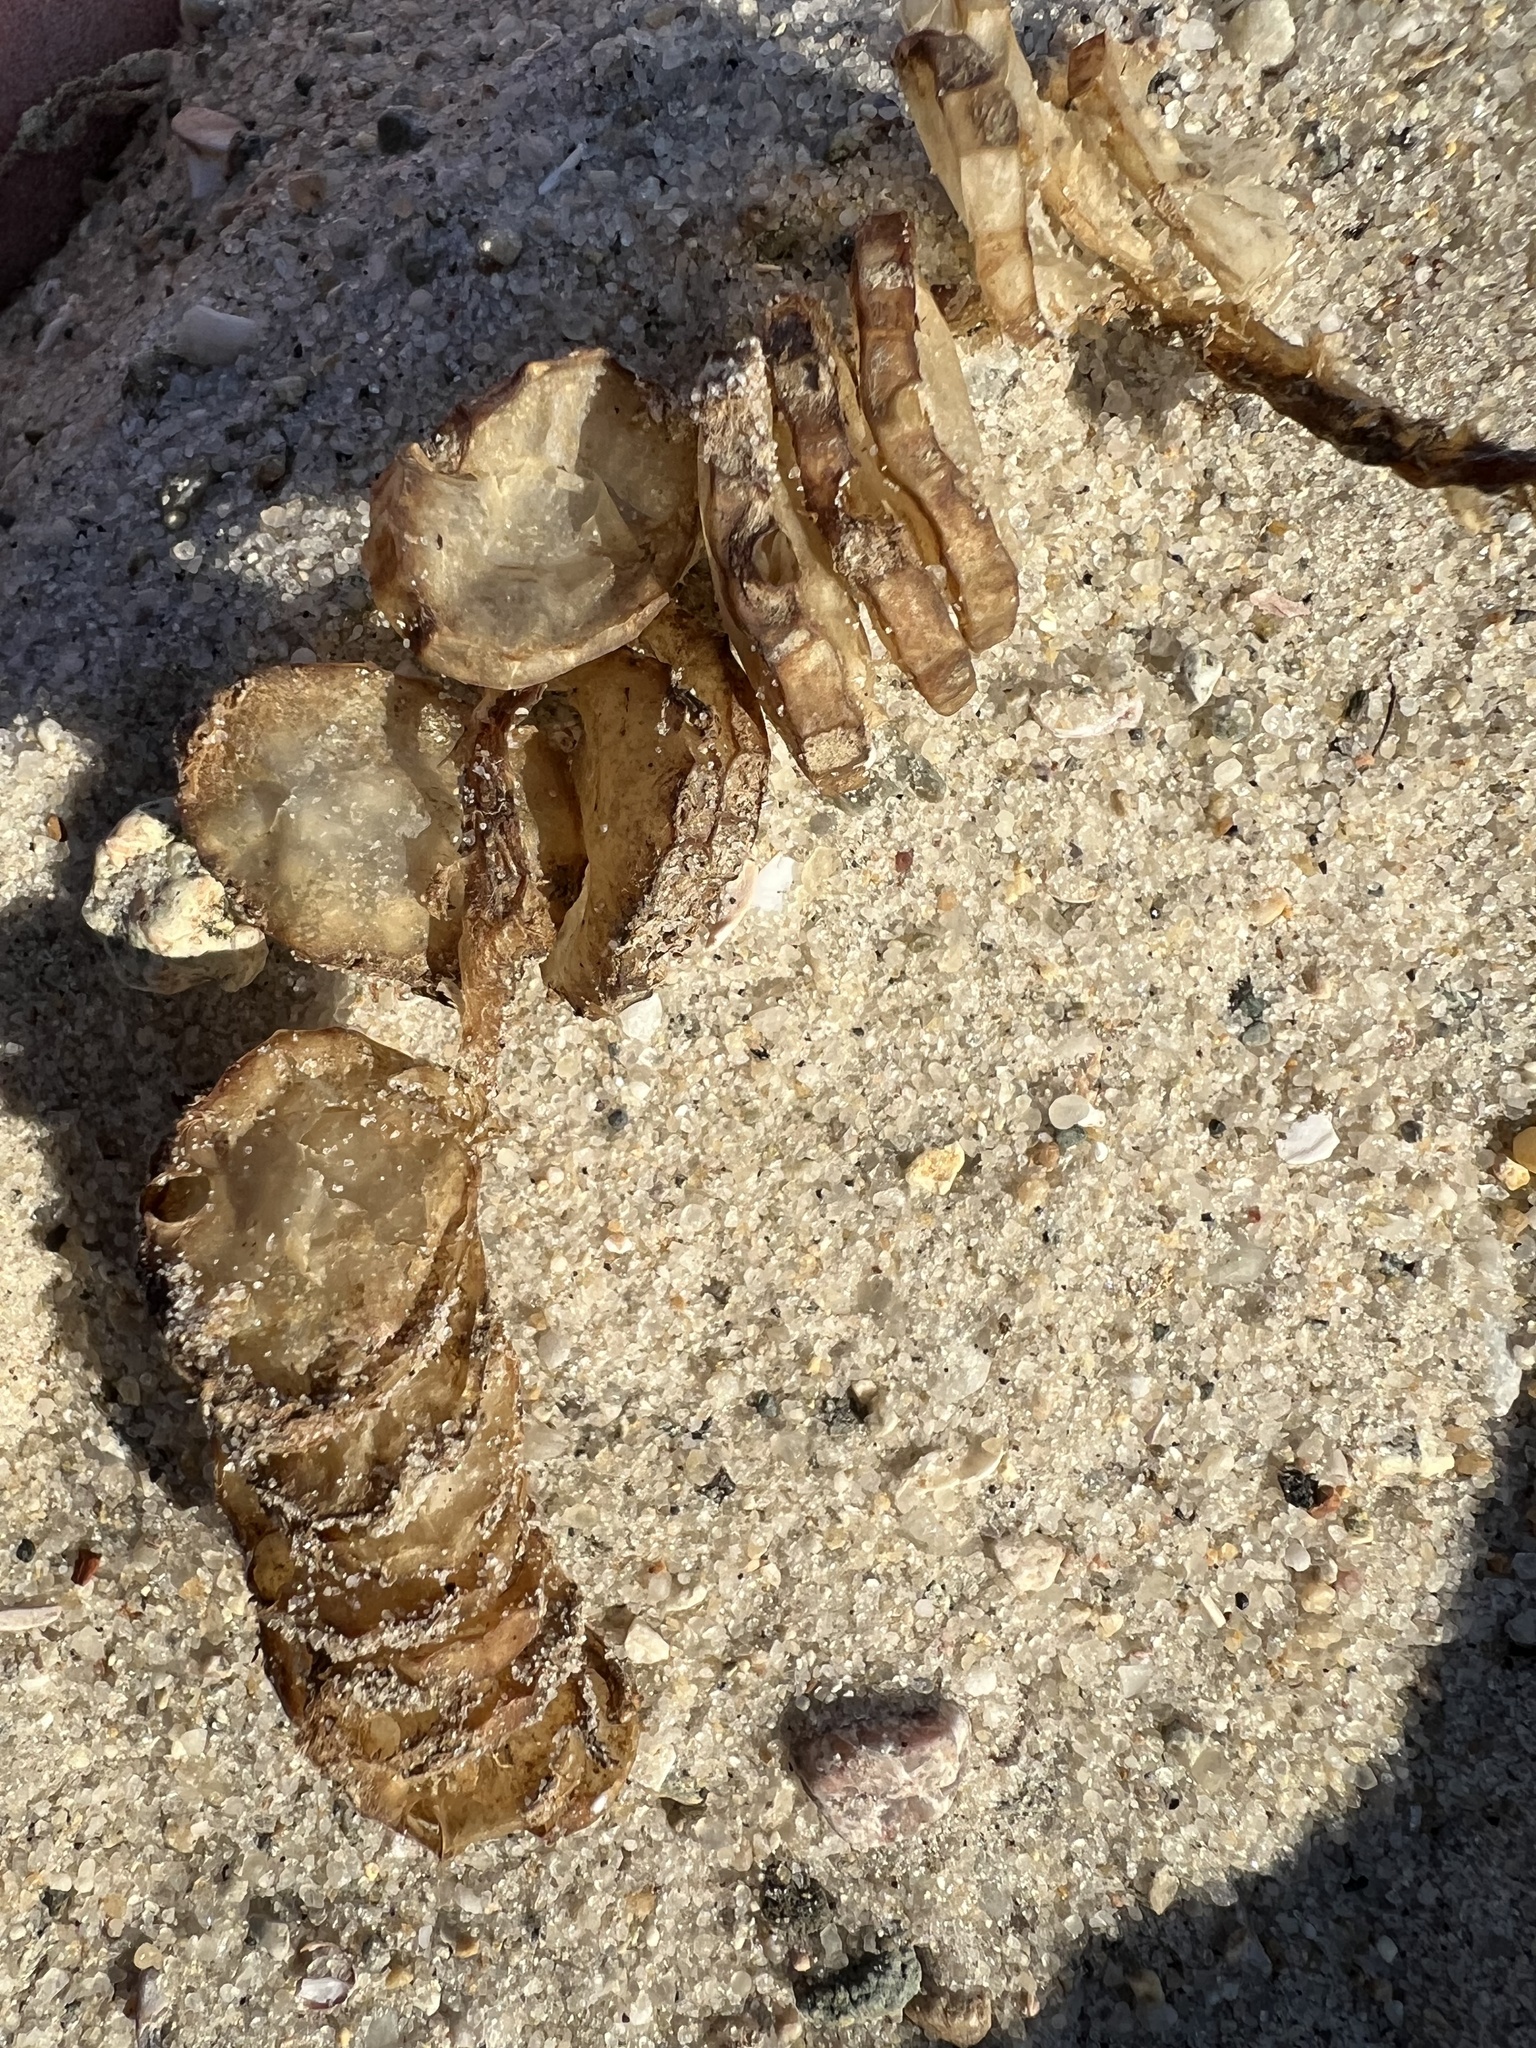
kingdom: Animalia
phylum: Mollusca
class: Gastropoda
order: Neogastropoda
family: Busyconidae
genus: Busycon
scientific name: Busycon carica
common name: Knobbed whelk
